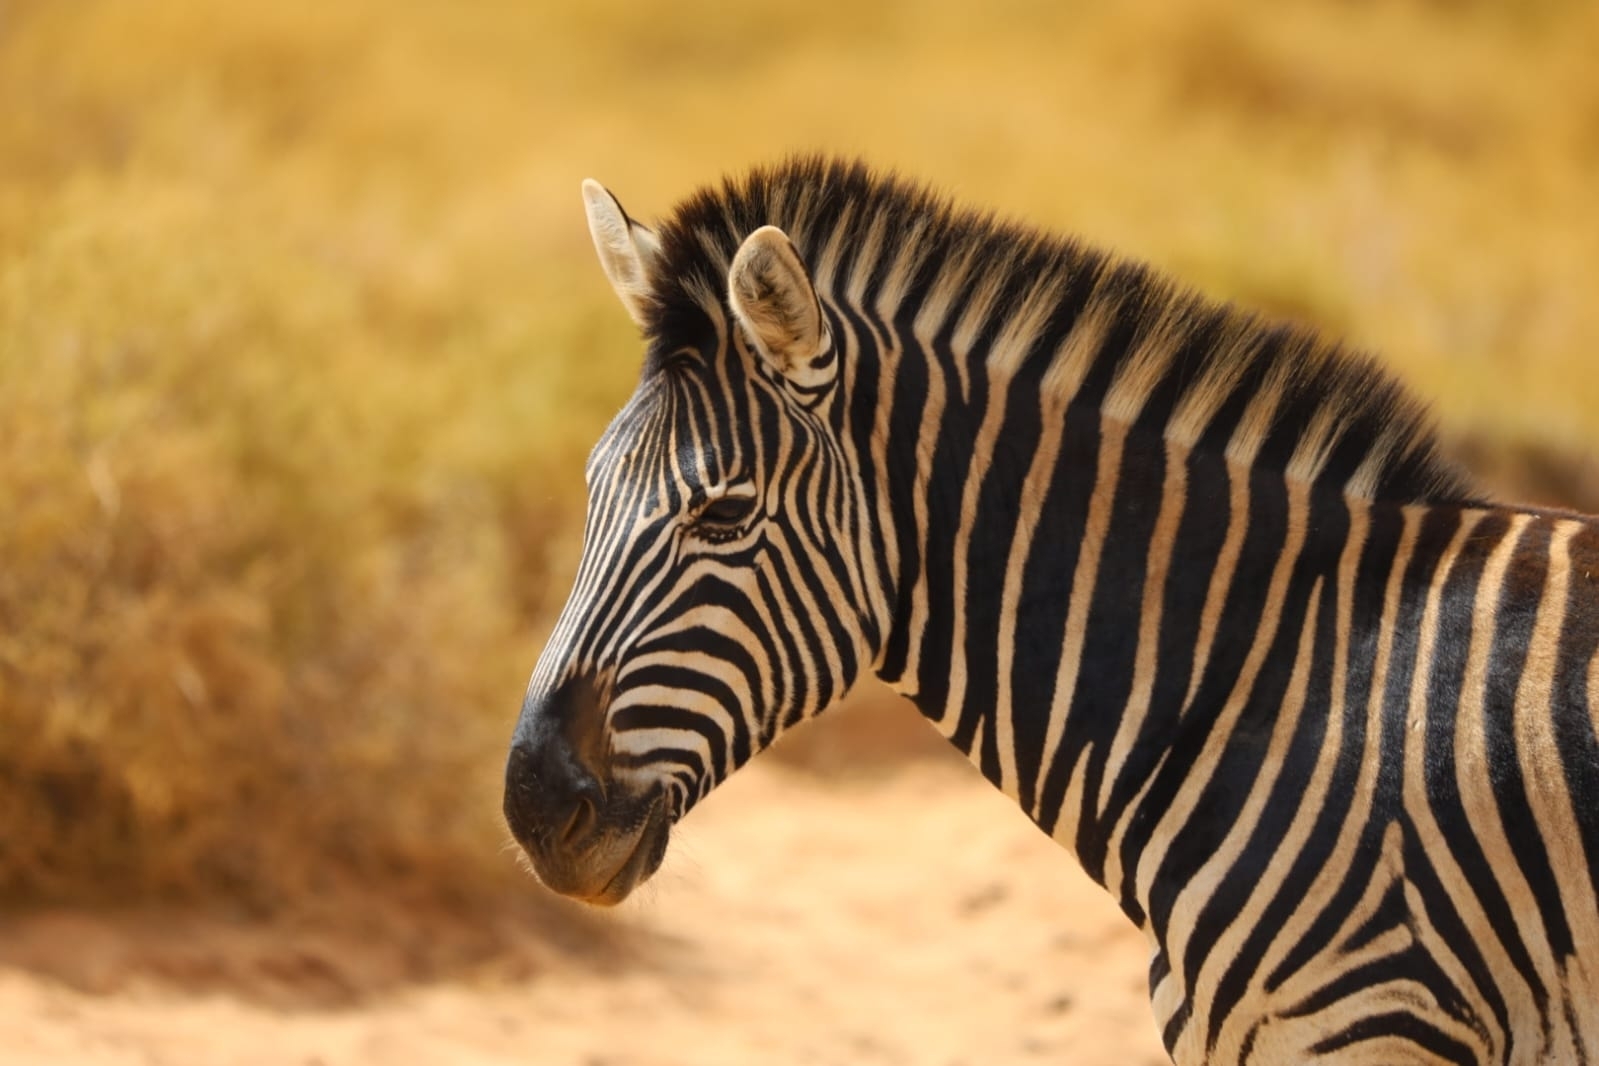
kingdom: Animalia
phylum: Chordata
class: Mammalia
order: Perissodactyla
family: Equidae
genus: Equus
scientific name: Equus quagga
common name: Plains zebra
